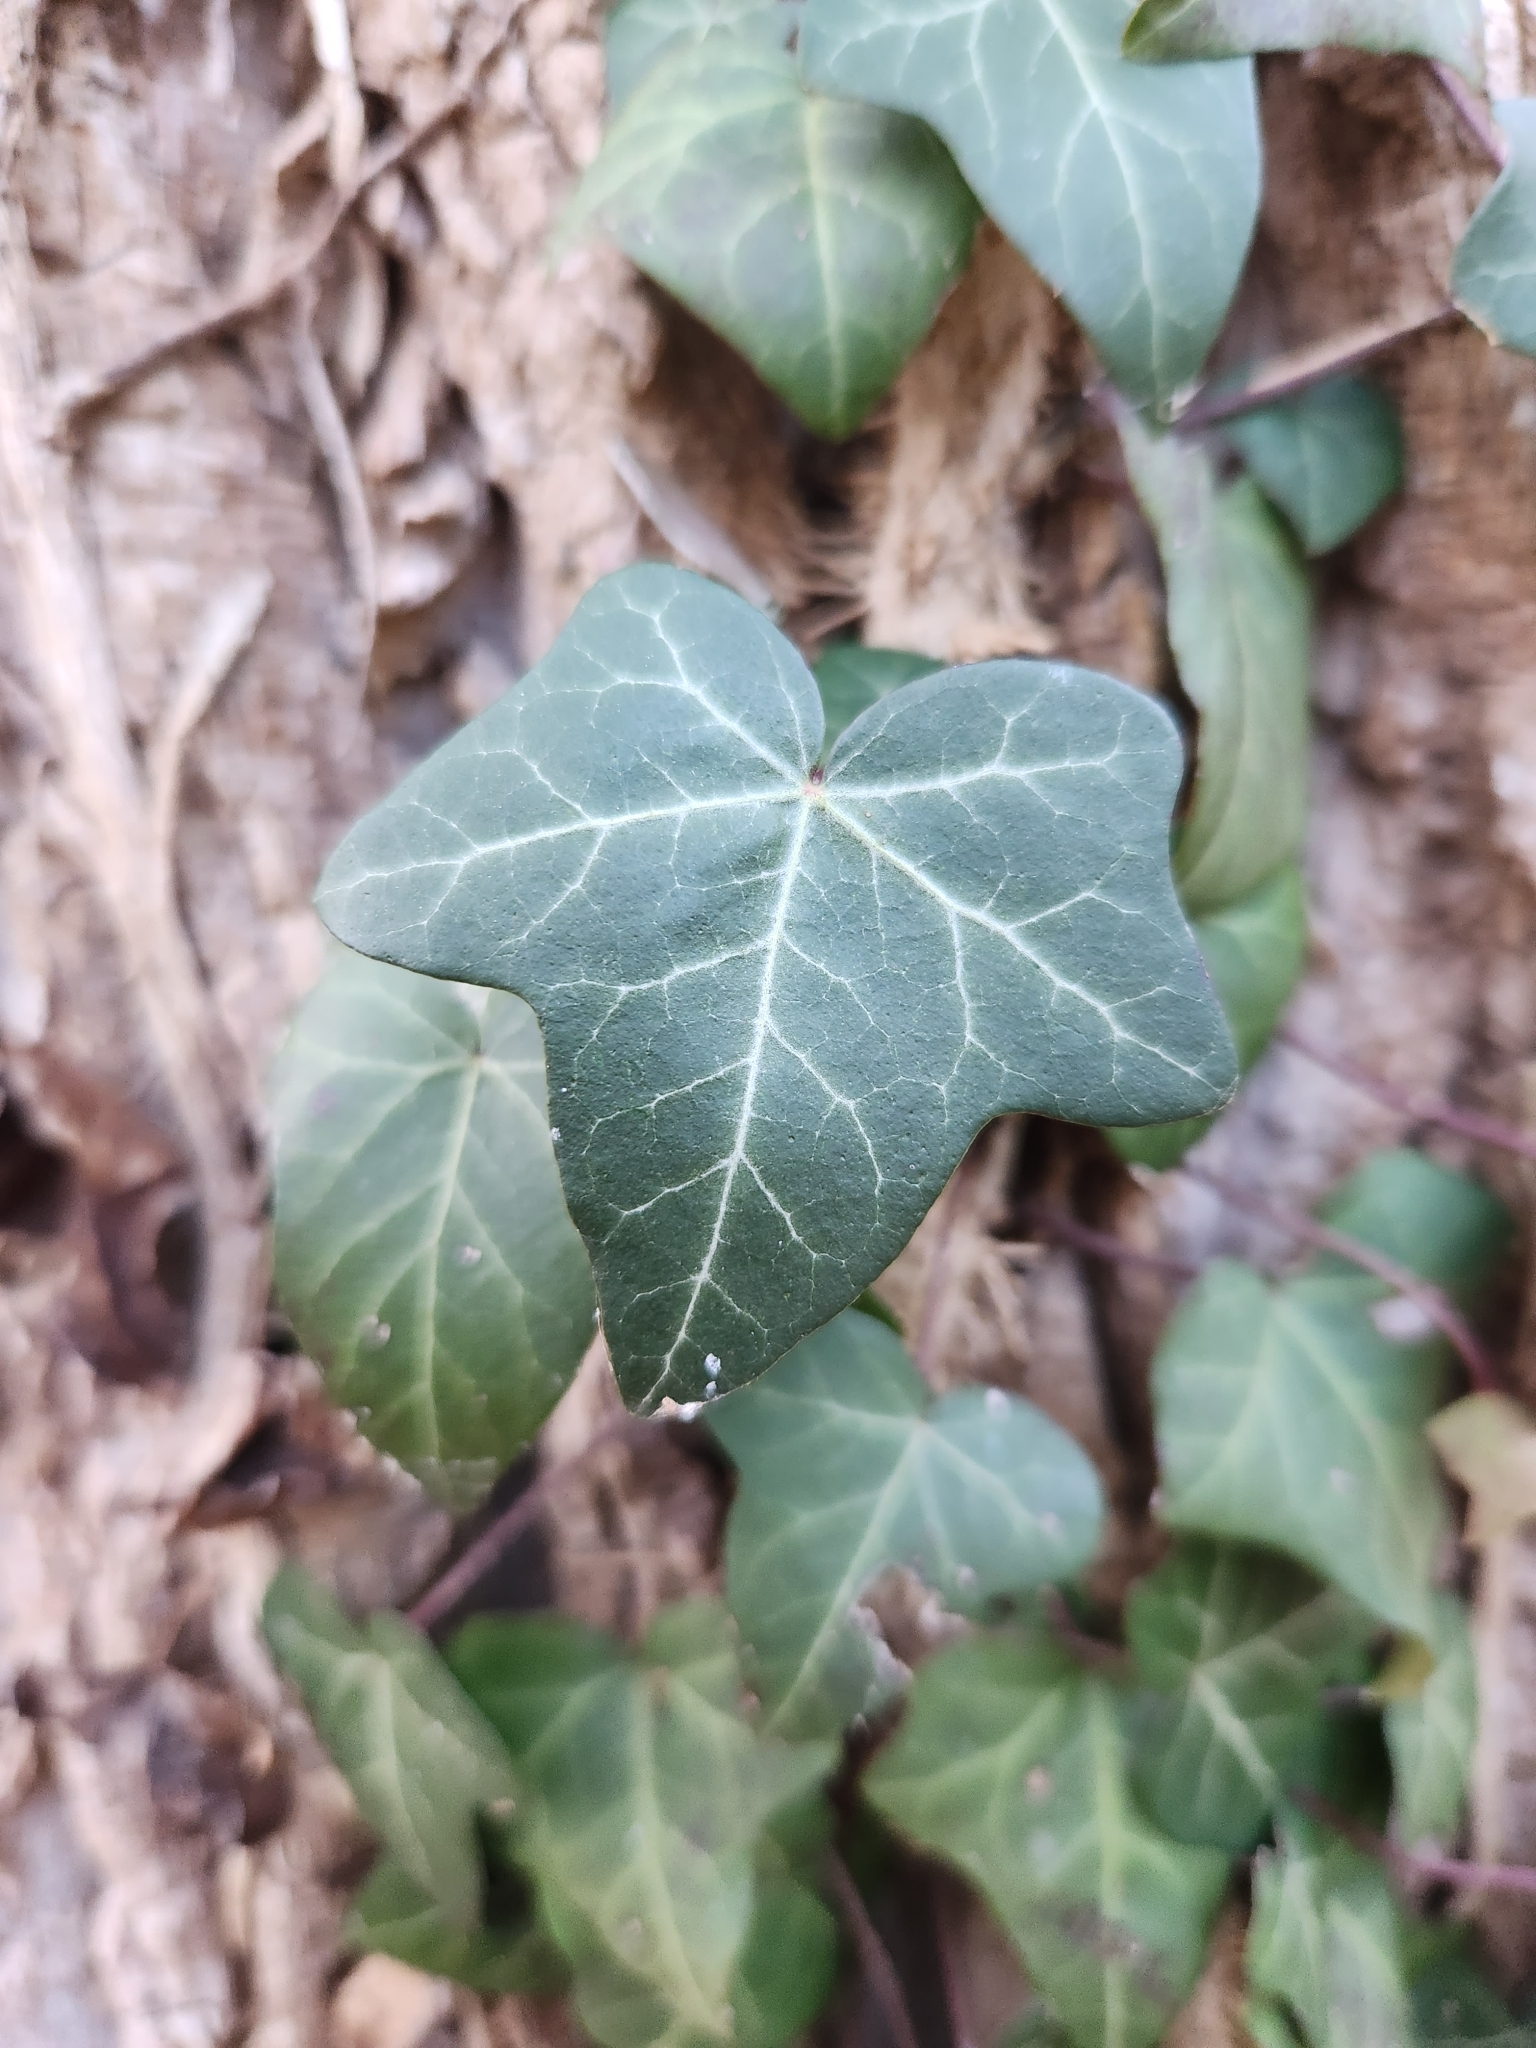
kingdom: Plantae
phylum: Tracheophyta
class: Magnoliopsida
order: Apiales
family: Araliaceae
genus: Hedera
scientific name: Hedera helix
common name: Ivy
